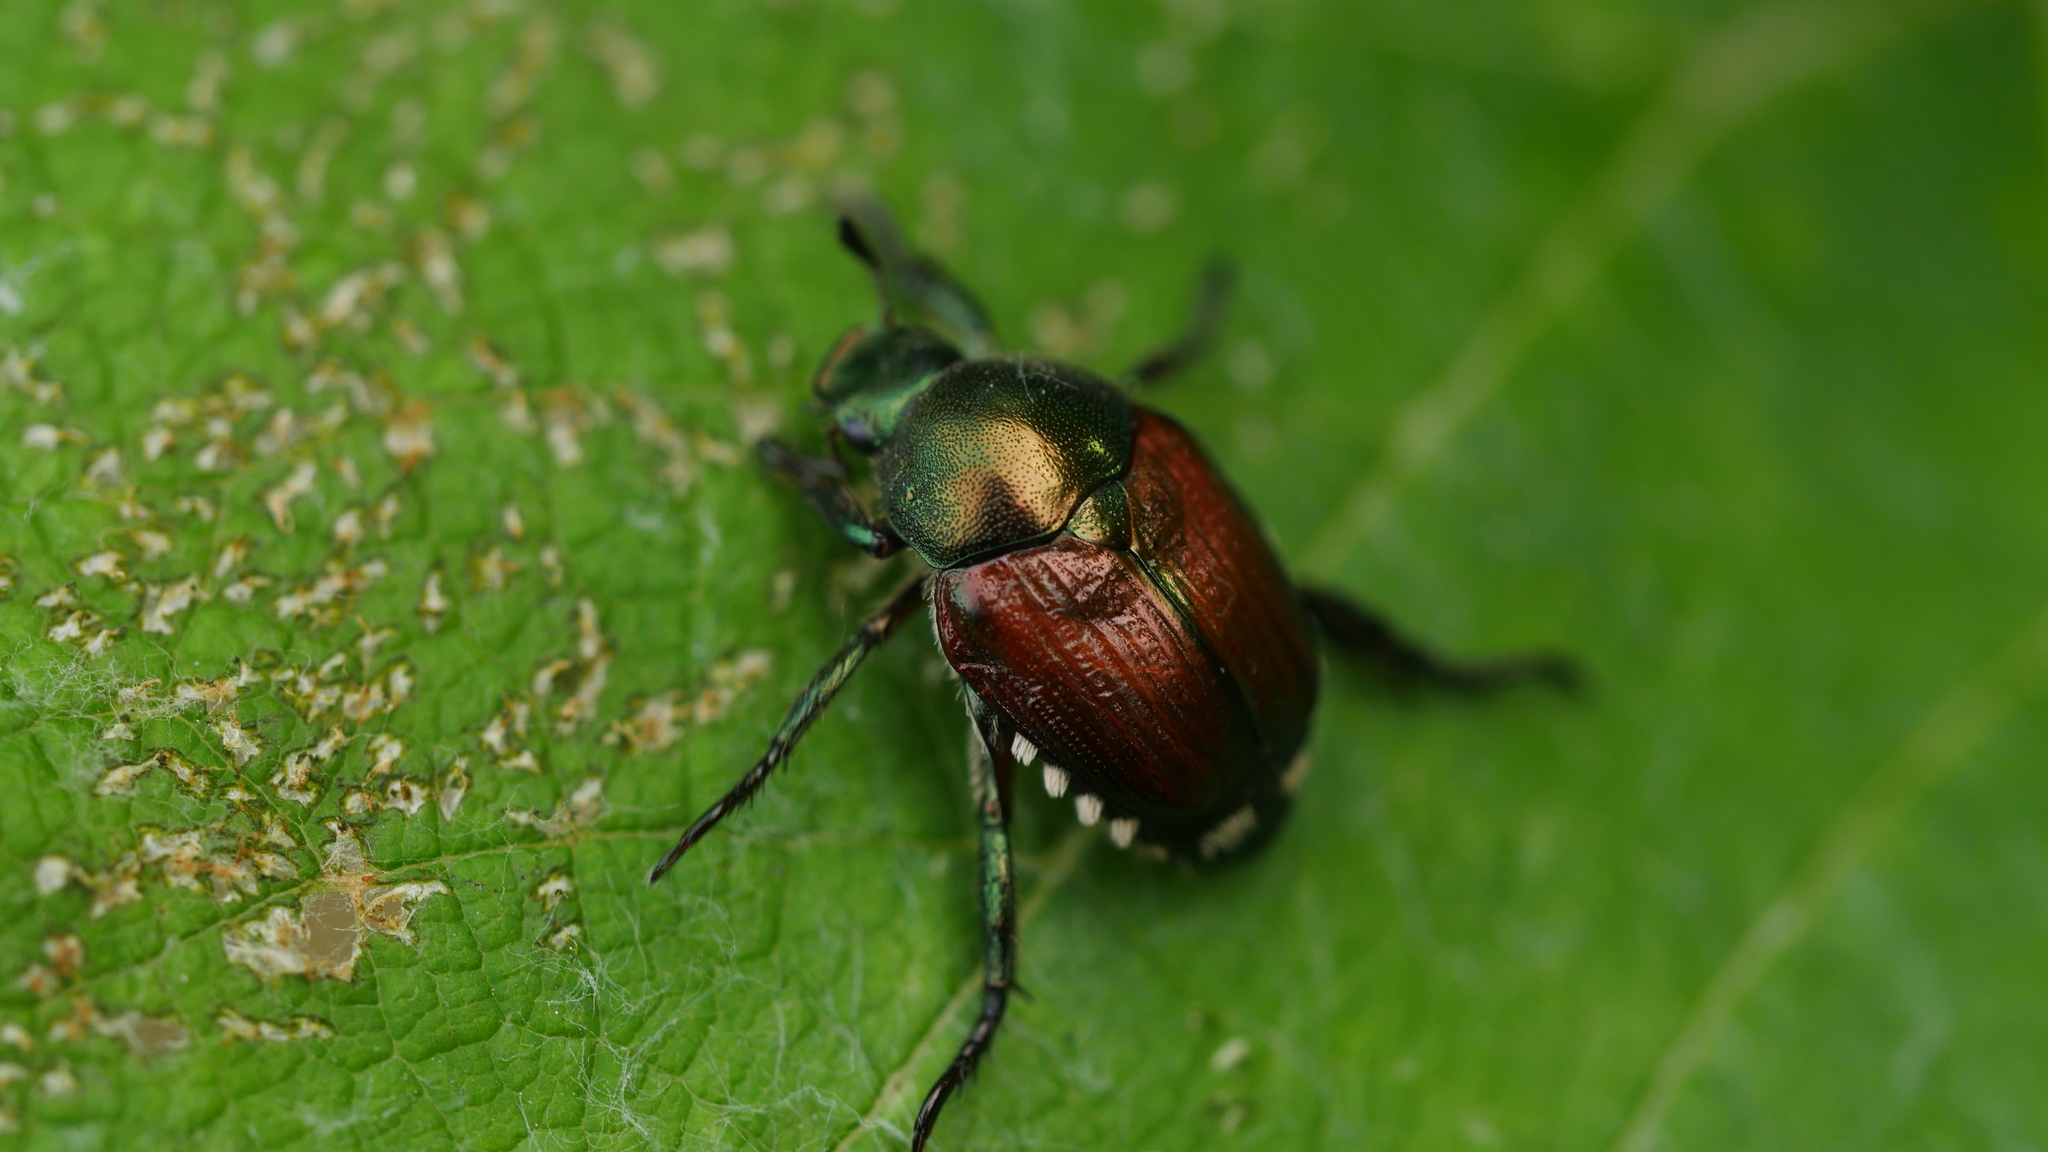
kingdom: Animalia
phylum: Arthropoda
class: Insecta
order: Coleoptera
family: Scarabaeidae
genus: Popillia
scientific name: Popillia japonica
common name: Japanese beetle
